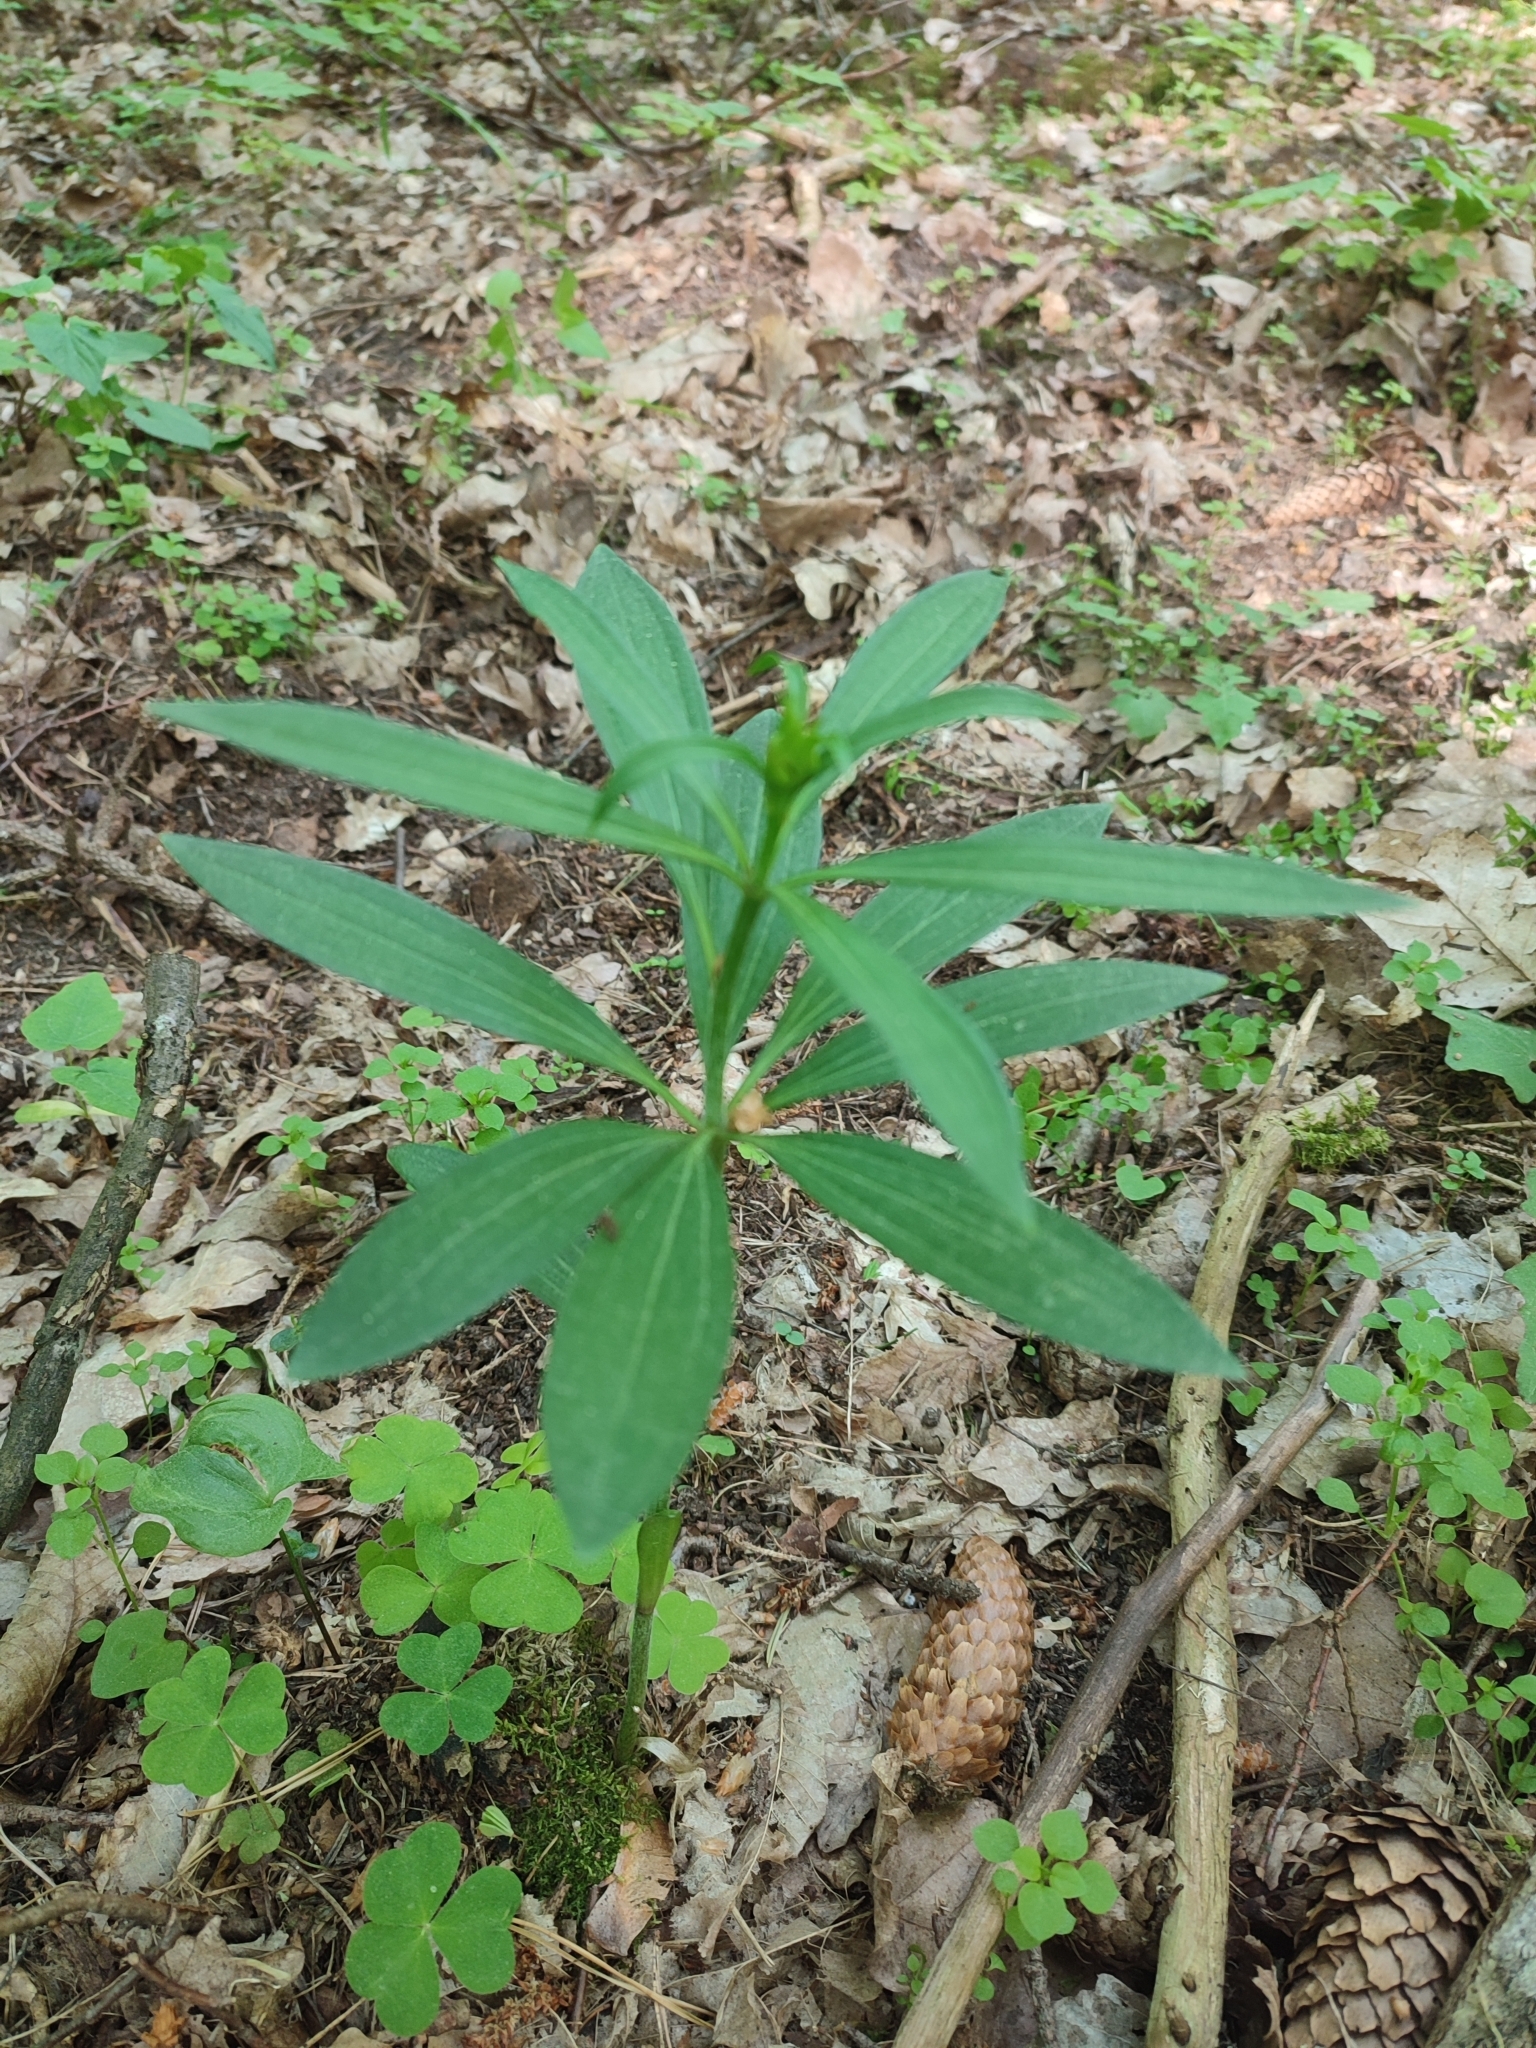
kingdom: Plantae
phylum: Tracheophyta
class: Liliopsida
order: Liliales
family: Liliaceae
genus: Lilium
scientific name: Lilium martagon
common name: Martagon lily
